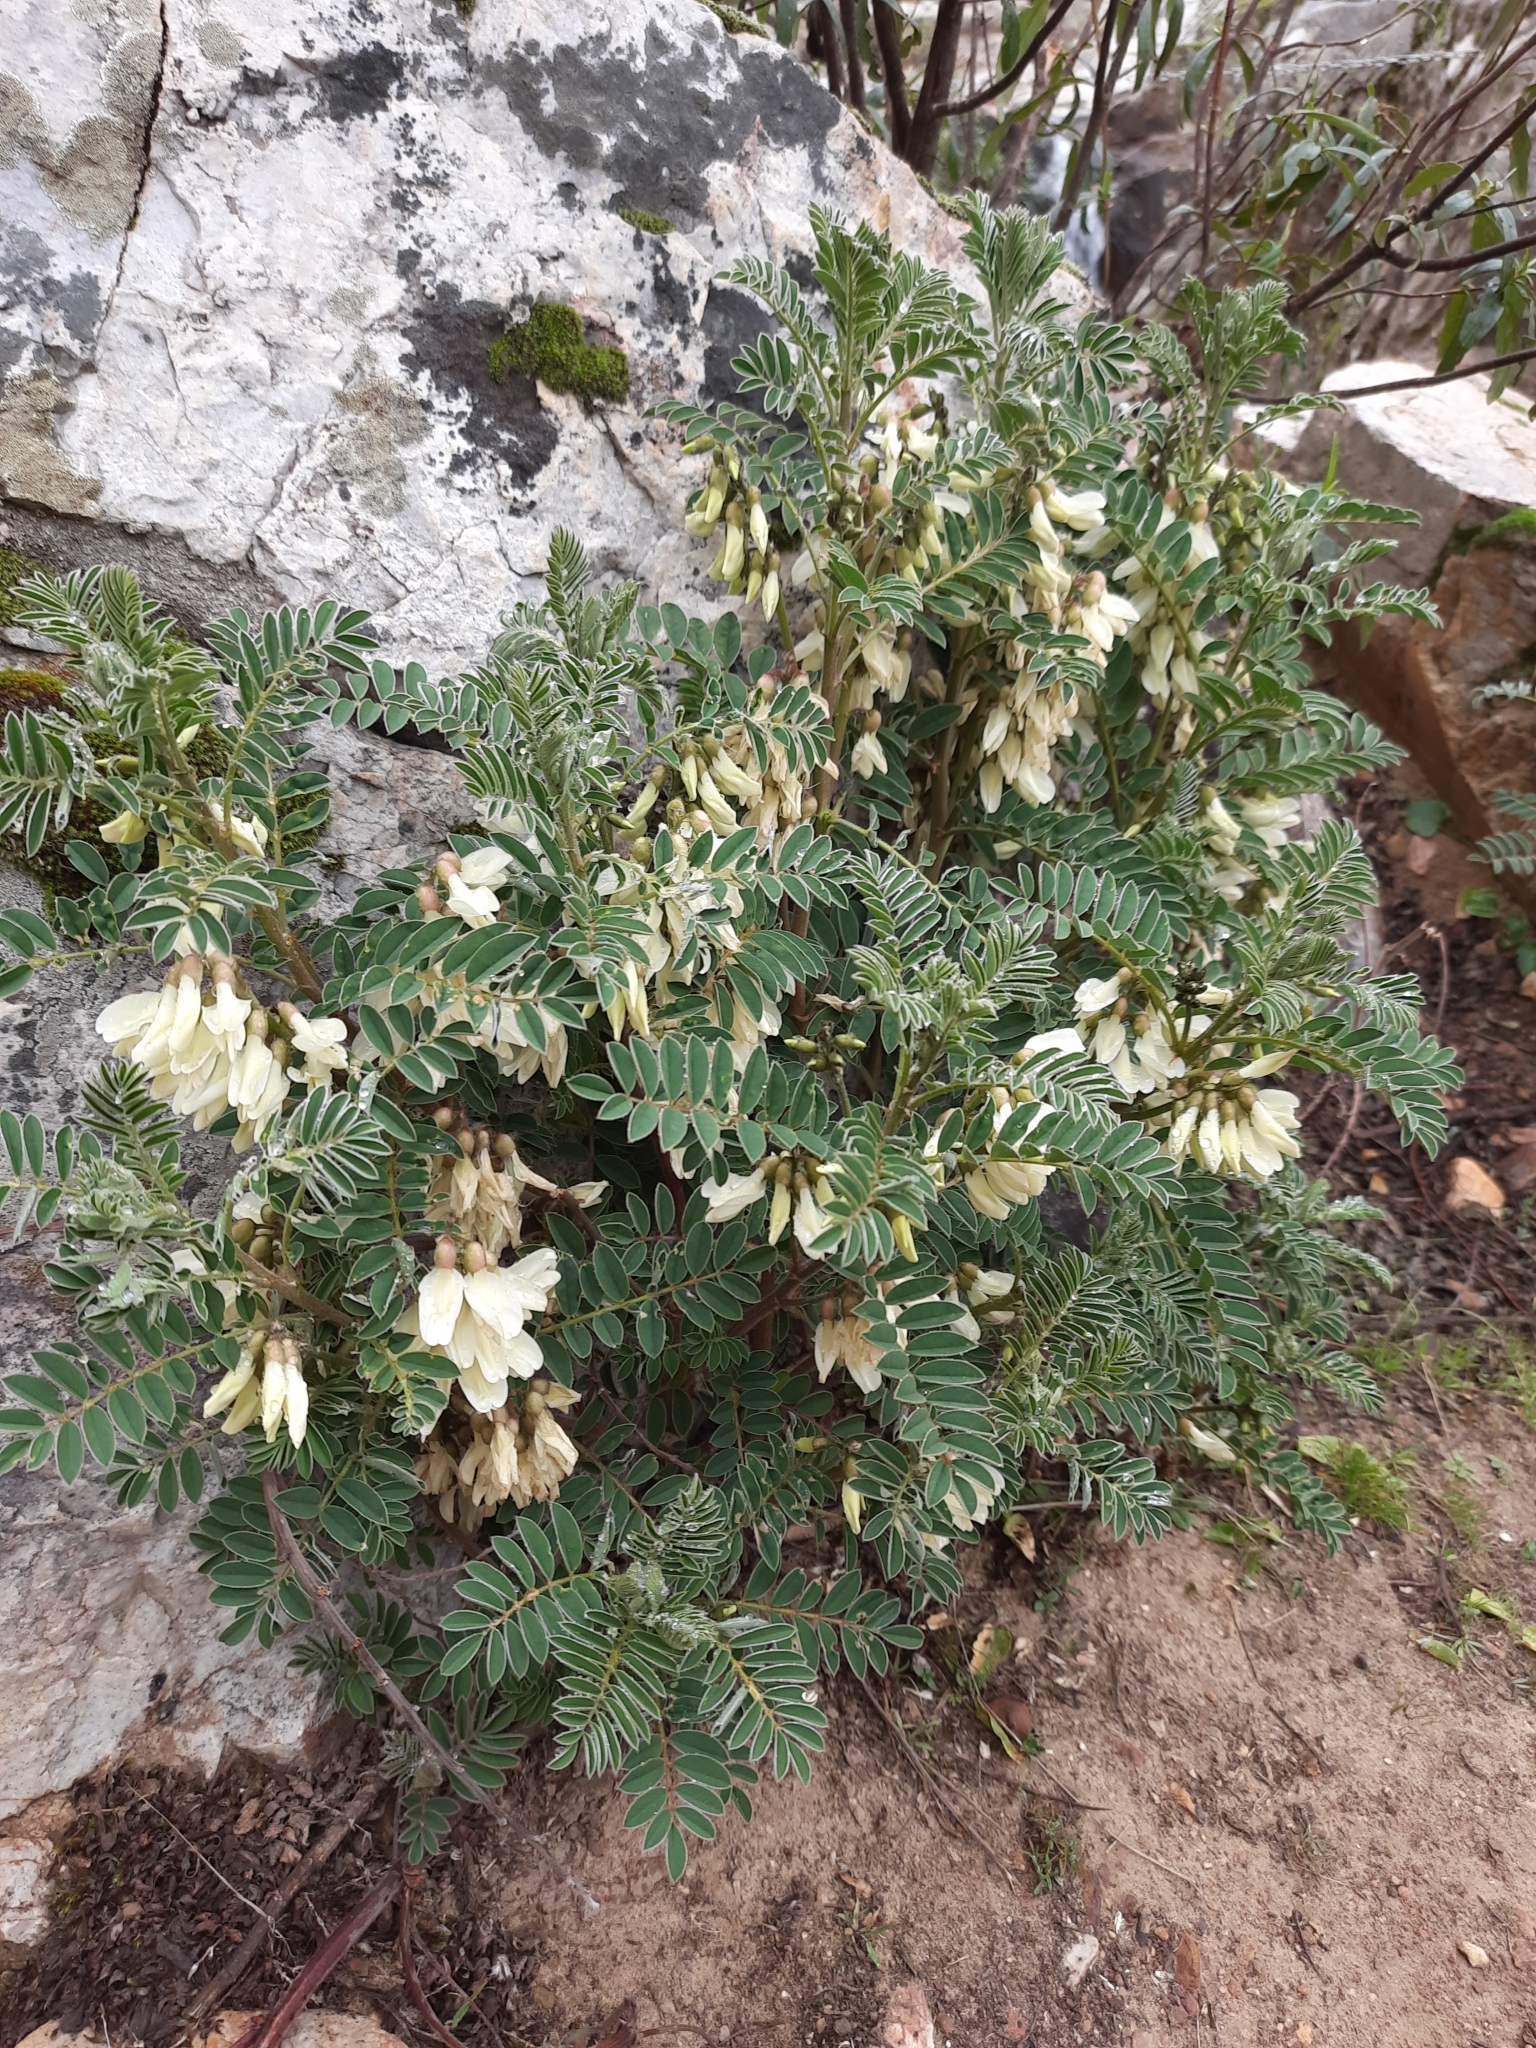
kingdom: Plantae
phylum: Tracheophyta
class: Magnoliopsida
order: Fabales
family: Fabaceae
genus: Erophaca
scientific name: Erophaca baetica
